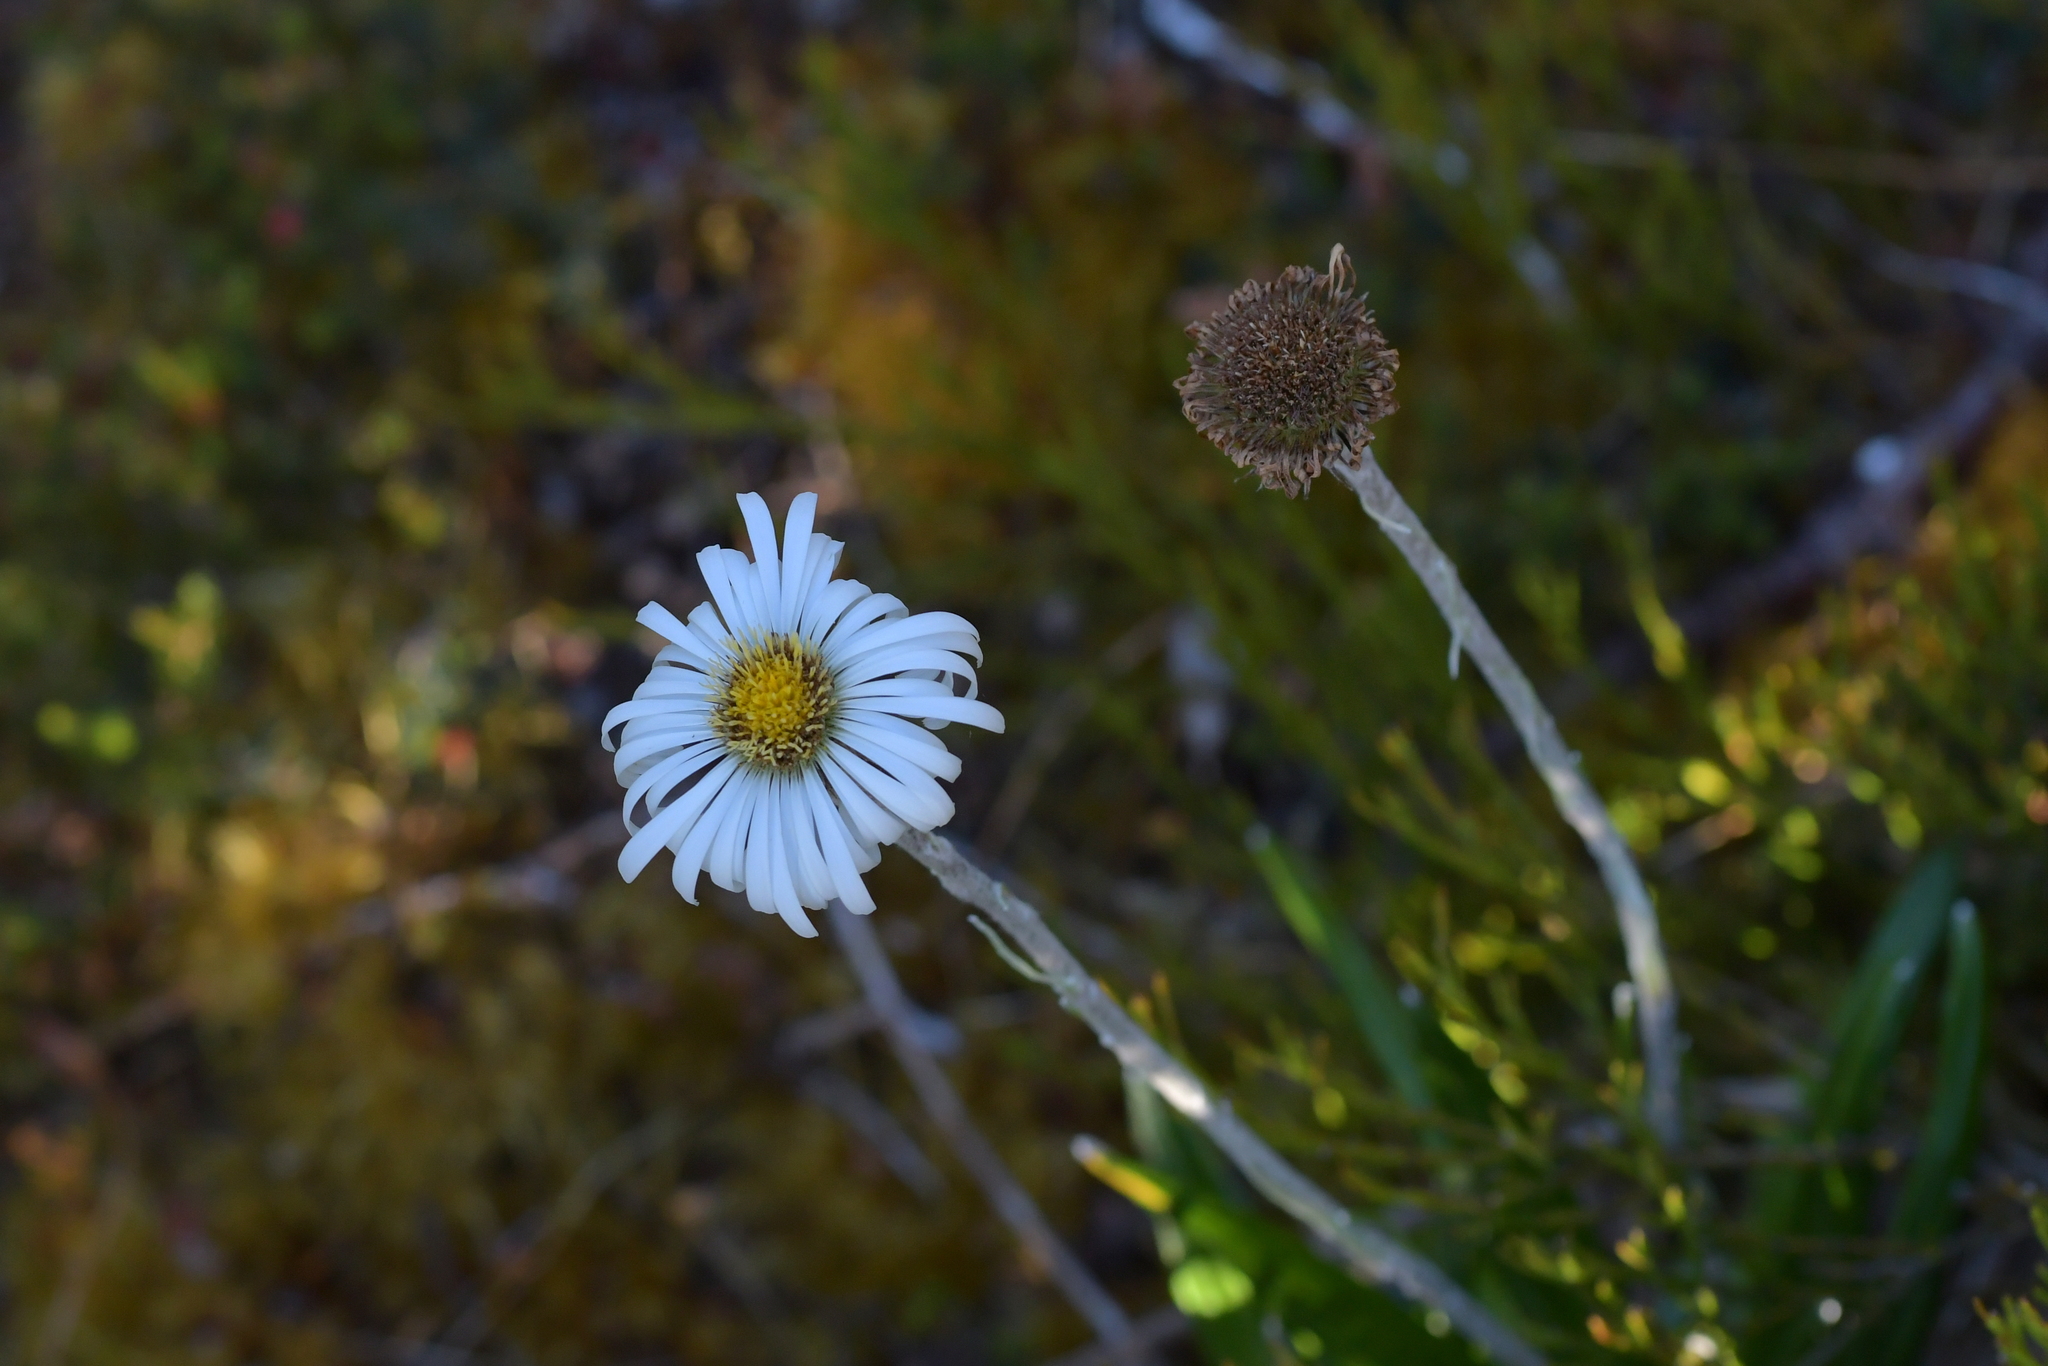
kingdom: Plantae
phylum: Tracheophyta
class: Magnoliopsida
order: Asterales
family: Asteraceae
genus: Celmisia
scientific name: Celmisia spectabilis
